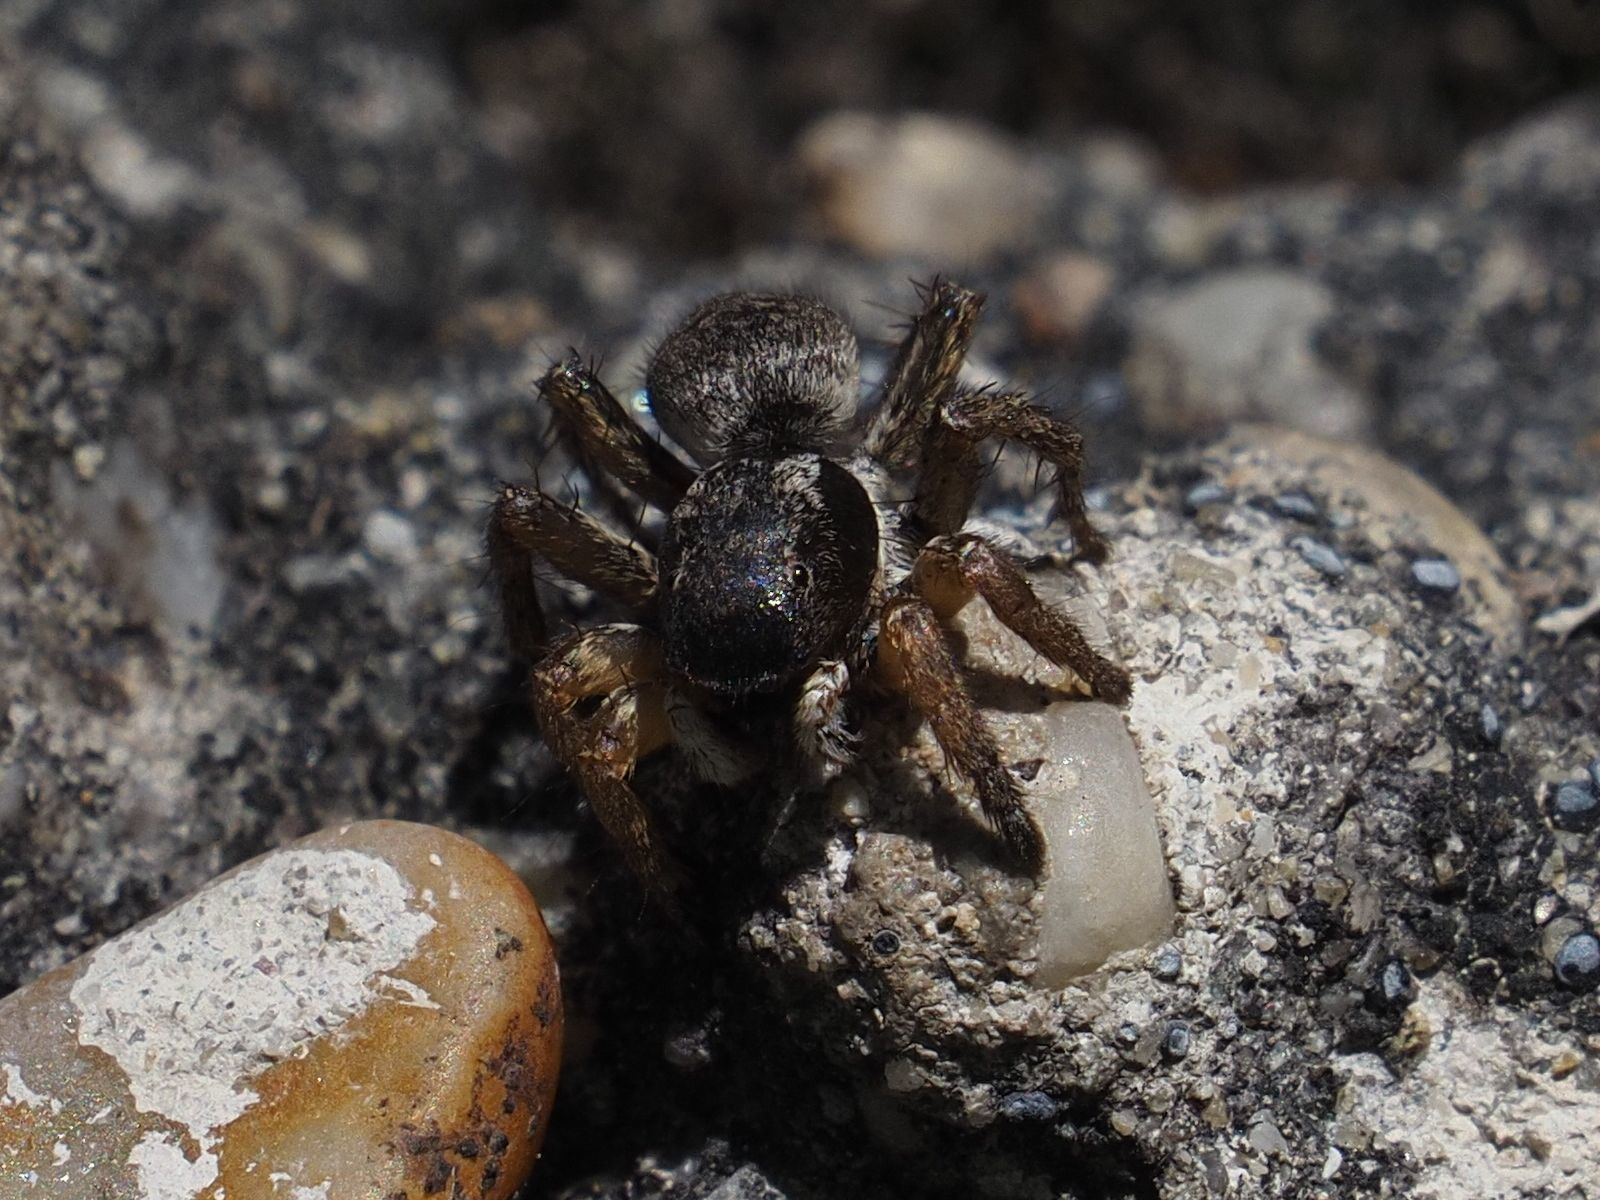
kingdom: Animalia
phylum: Arthropoda
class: Arachnida
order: Araneae
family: Salticidae
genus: Asianellus
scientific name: Asianellus festivus
